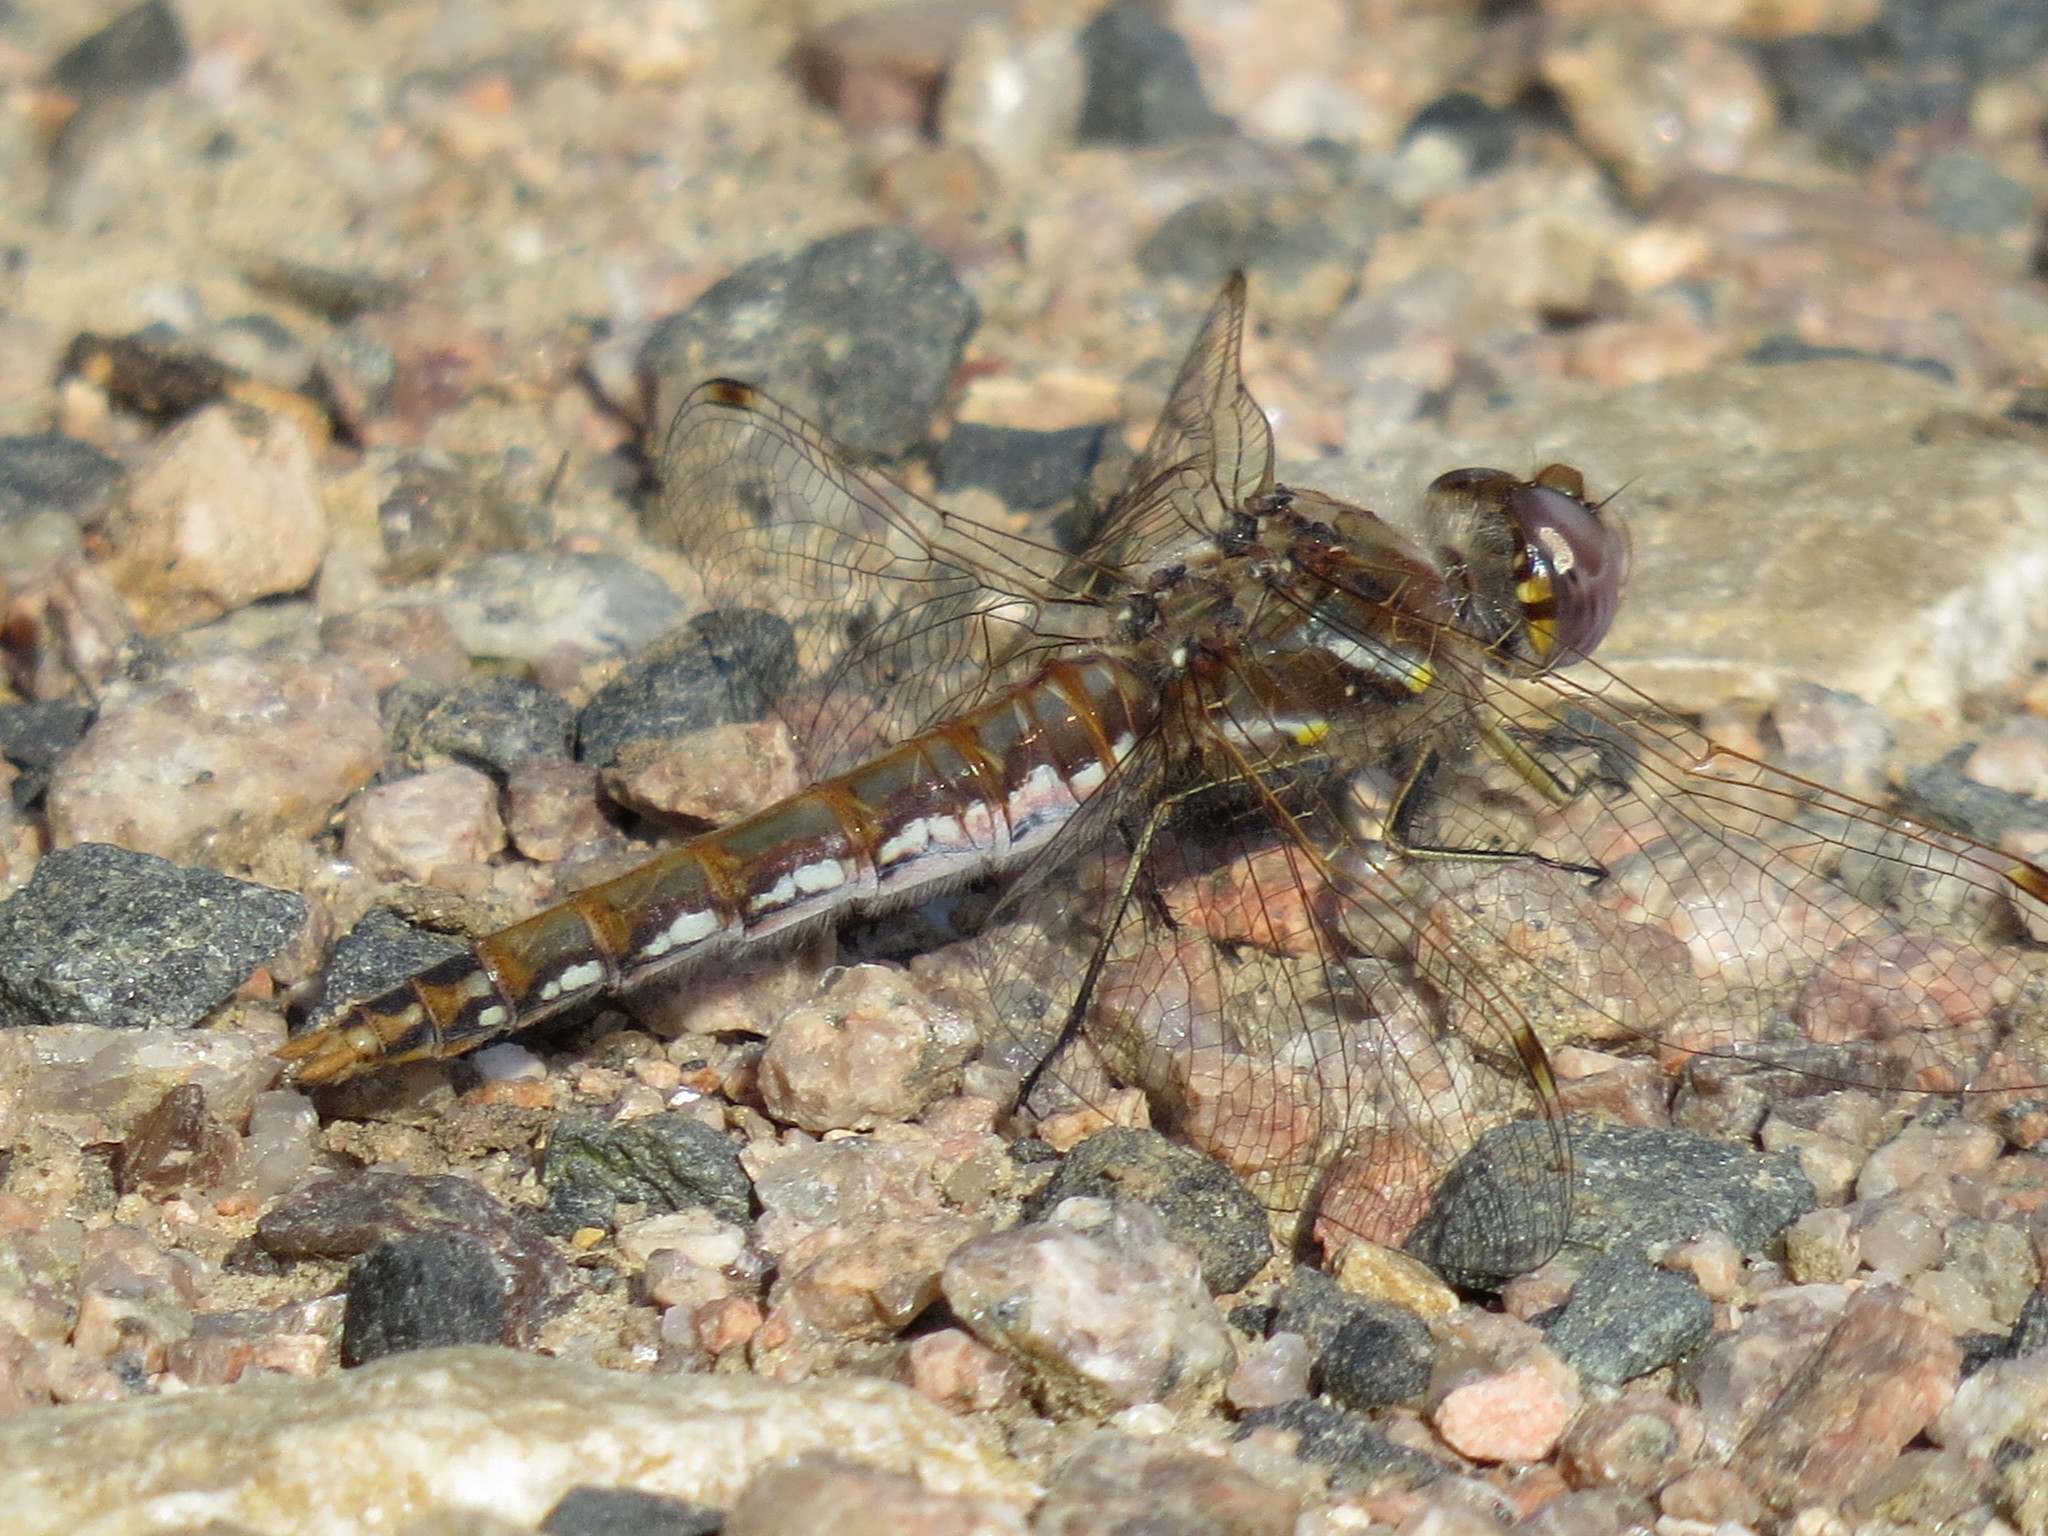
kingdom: Animalia
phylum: Arthropoda
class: Insecta
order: Odonata
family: Libellulidae
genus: Sympetrum
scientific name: Sympetrum corruptum
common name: Variegated meadowhawk
